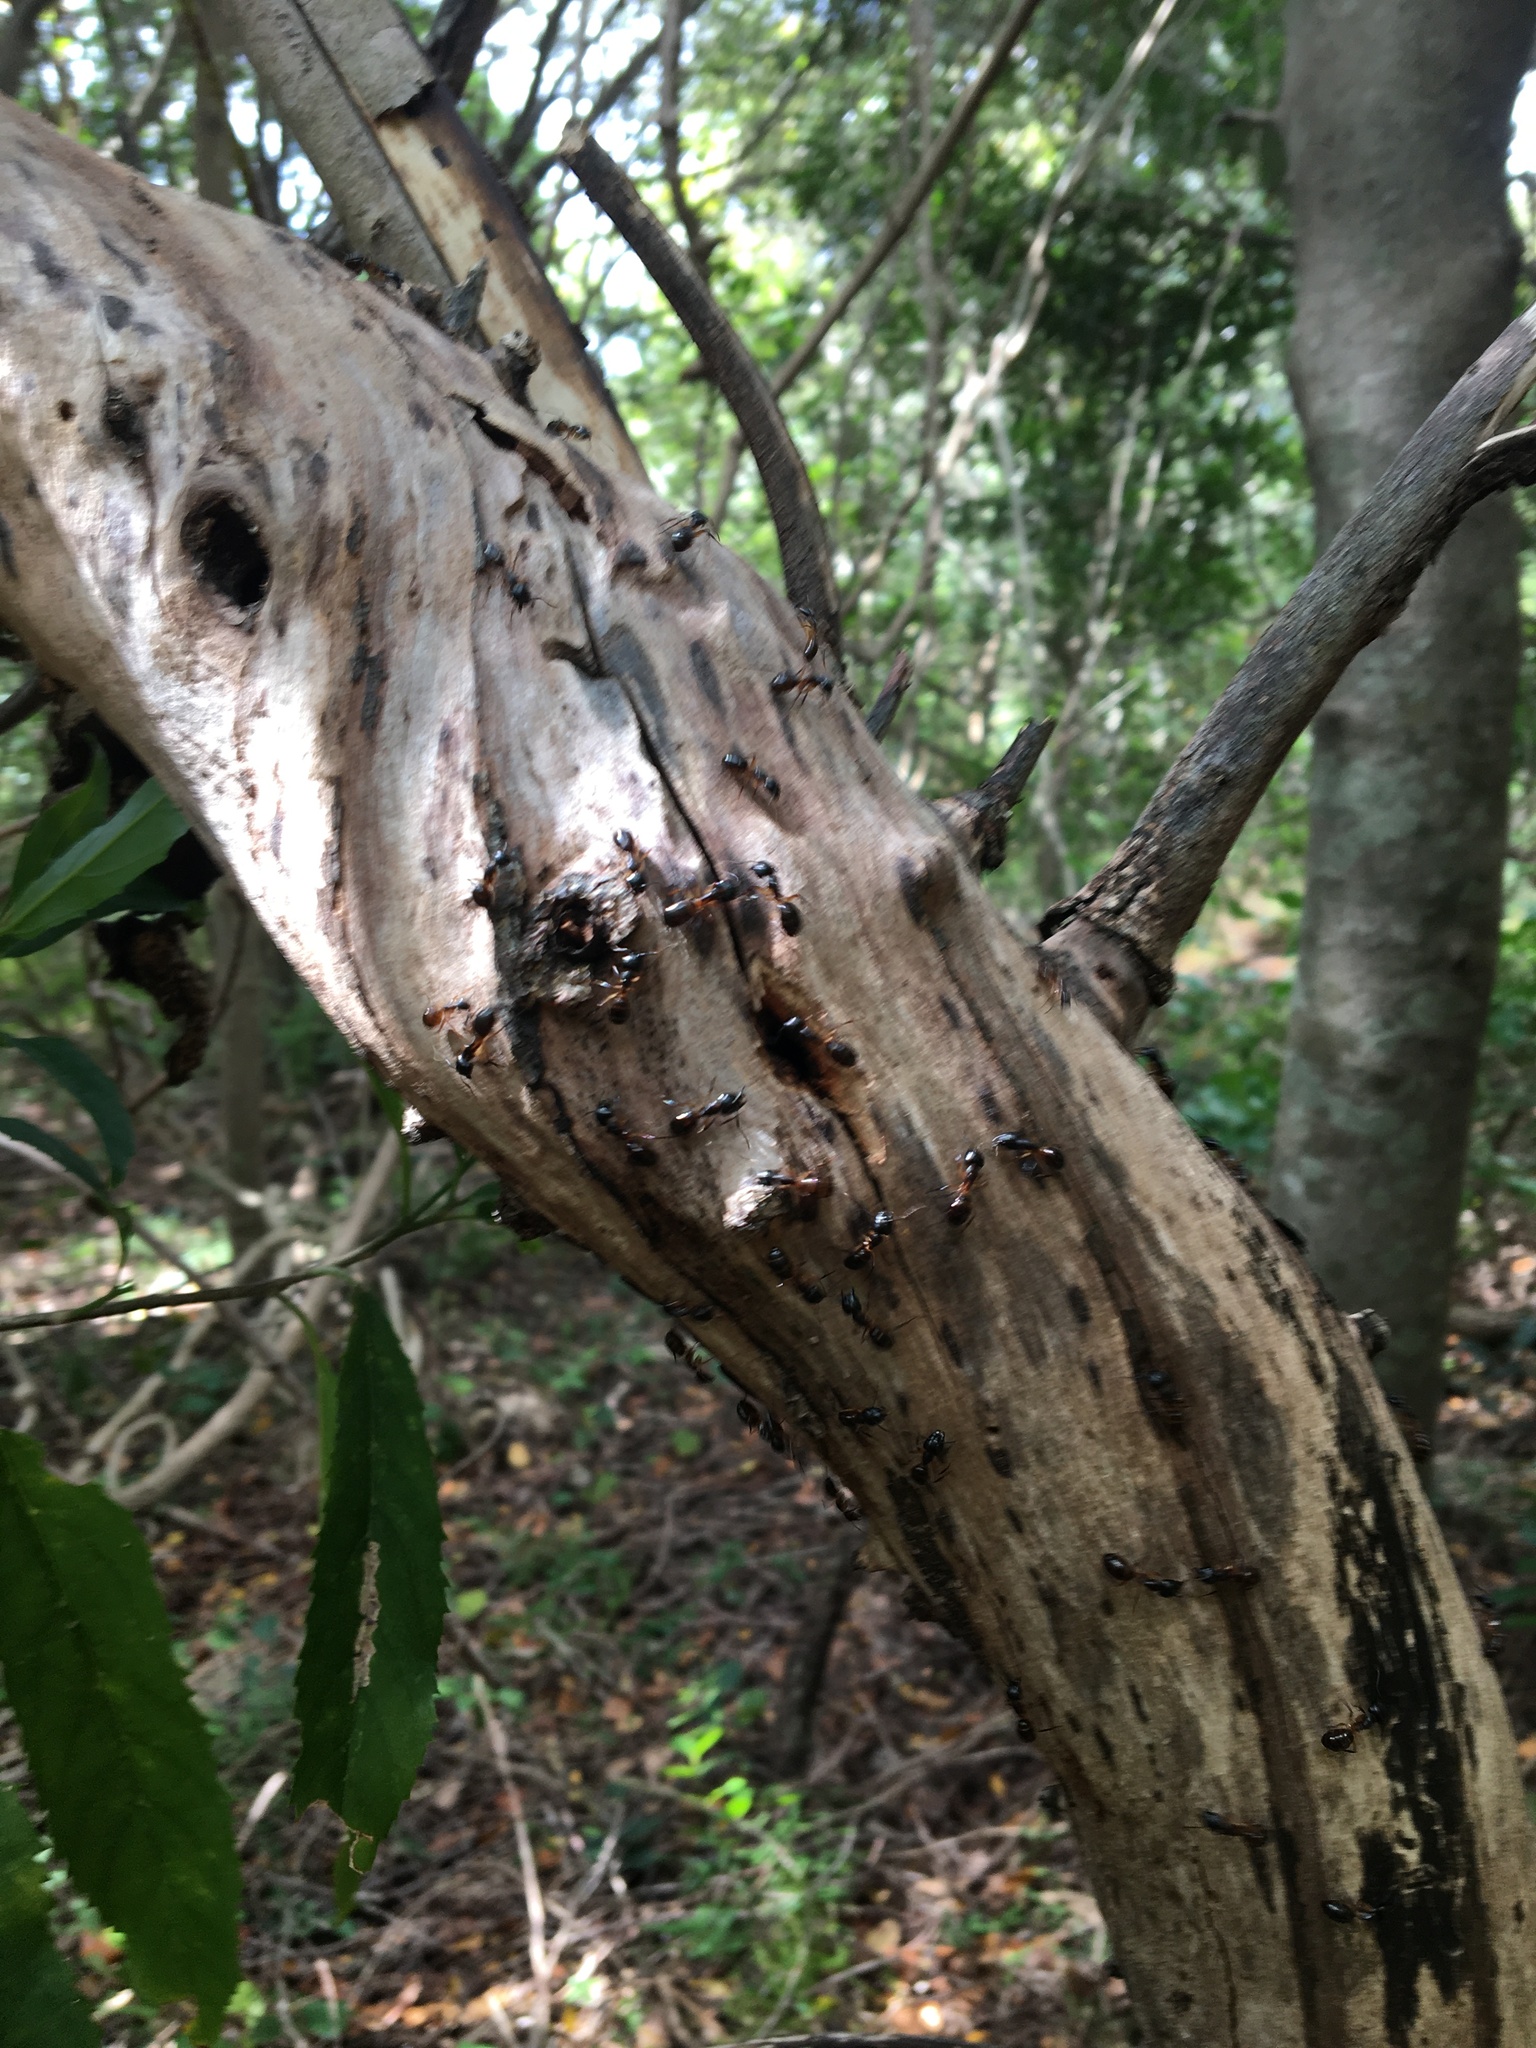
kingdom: Animalia
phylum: Arthropoda
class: Insecta
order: Hymenoptera
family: Formicidae
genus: Camponotus
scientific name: Camponotus bianconii
